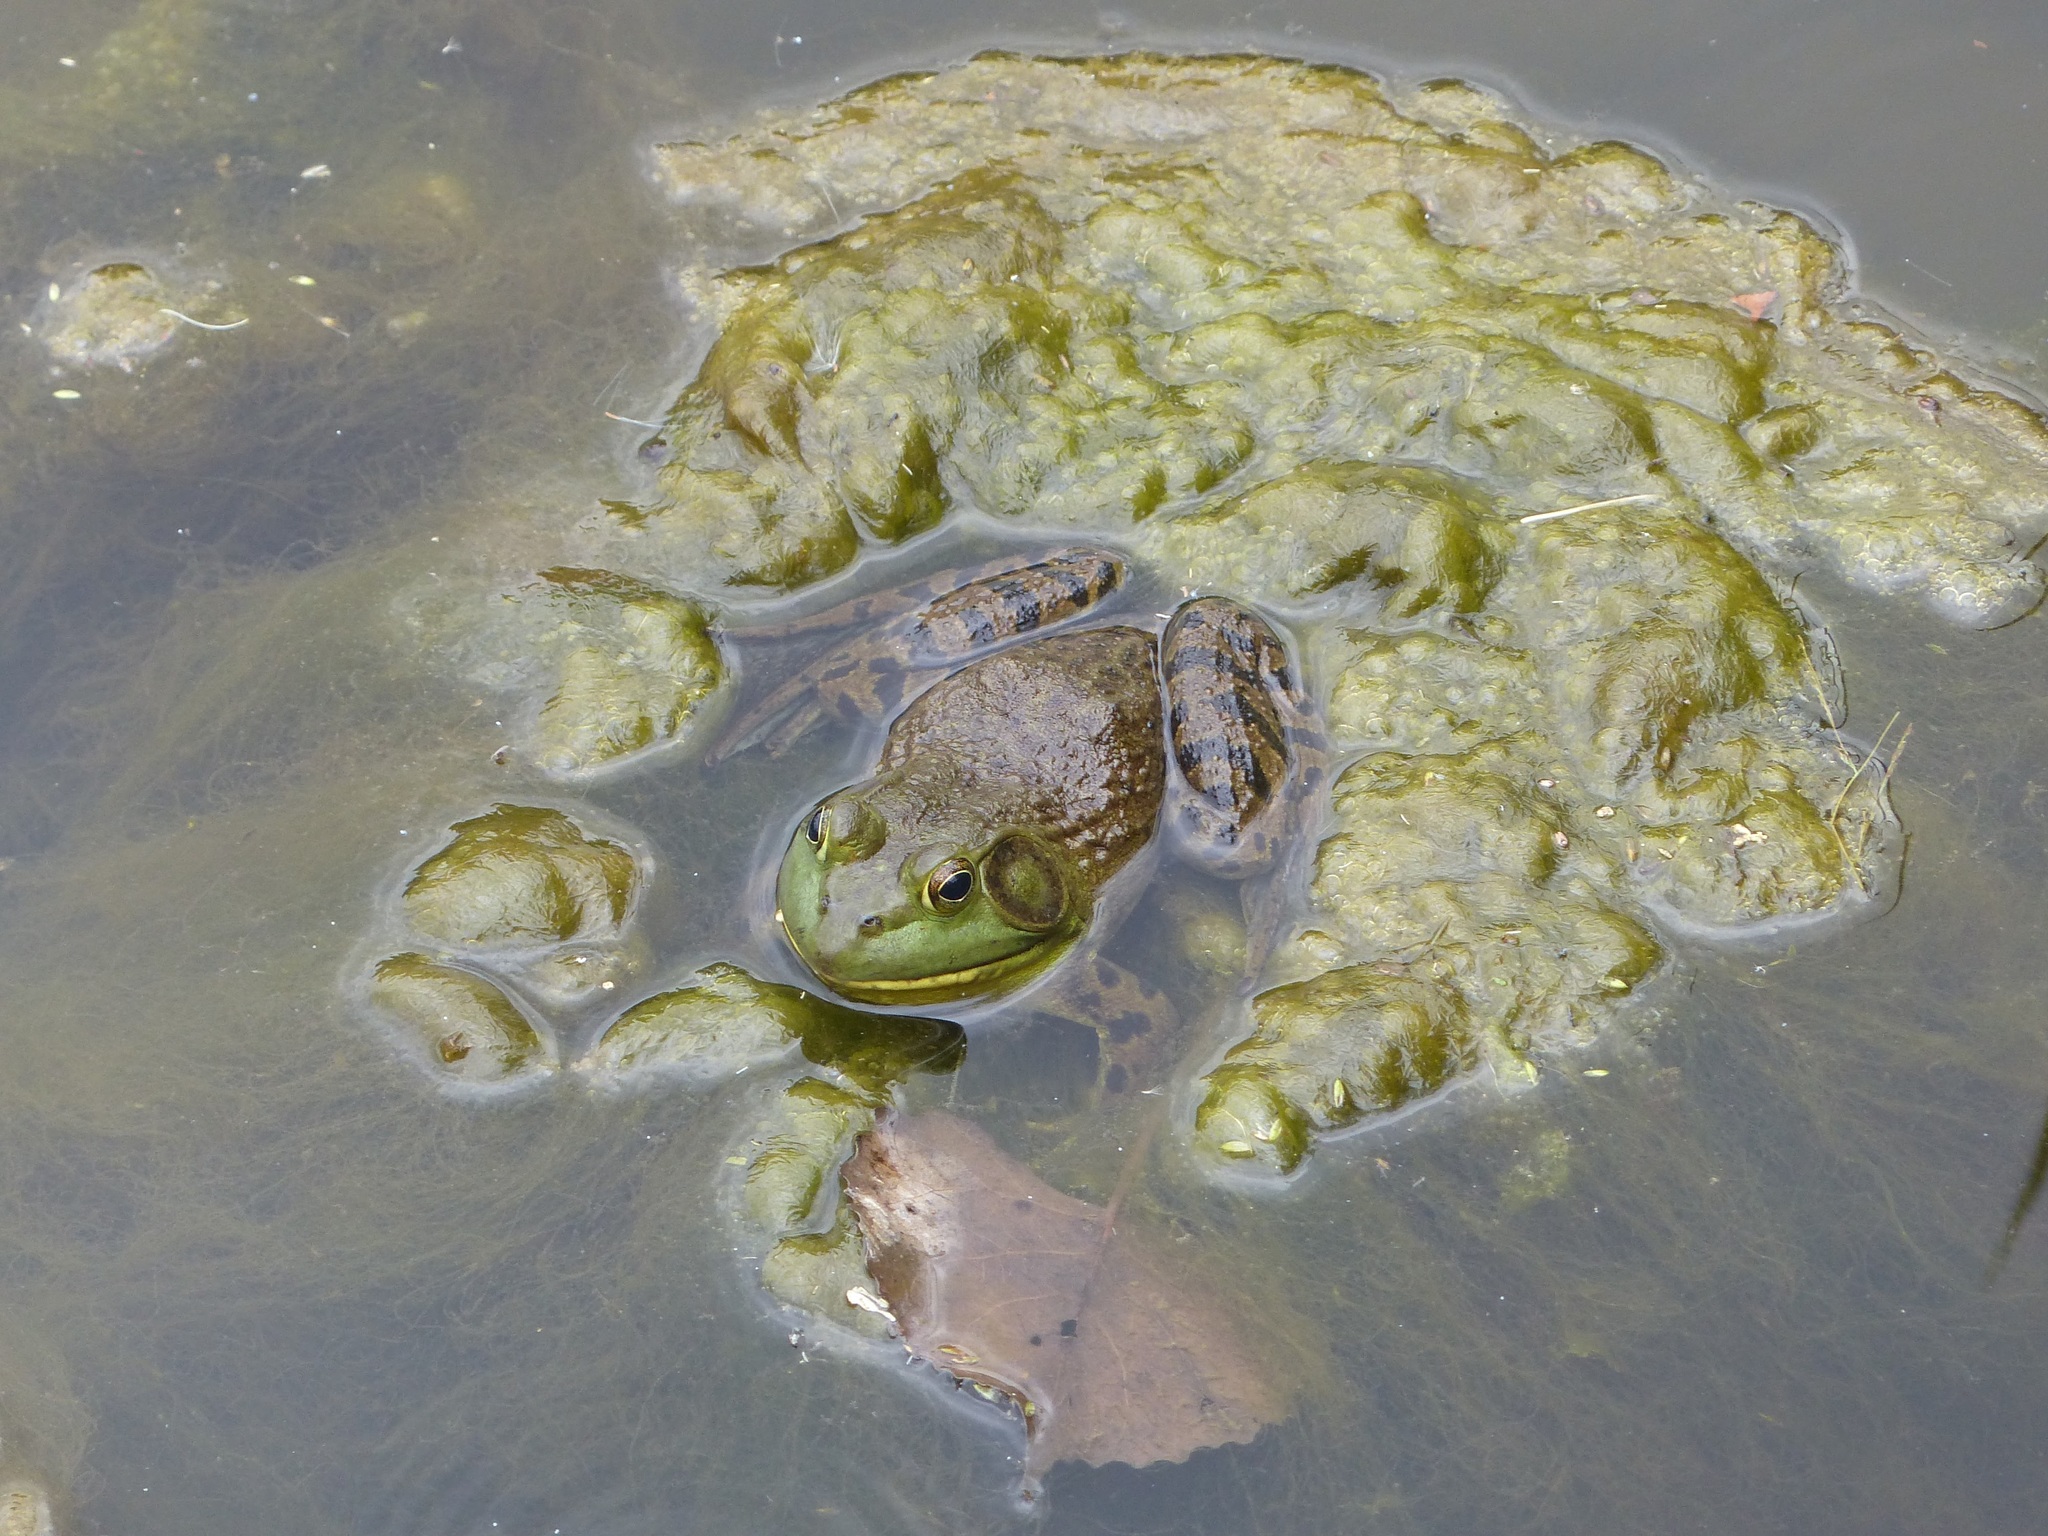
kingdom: Animalia
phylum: Chordata
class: Amphibia
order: Anura
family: Ranidae
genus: Lithobates
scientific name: Lithobates catesbeianus
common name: American bullfrog
